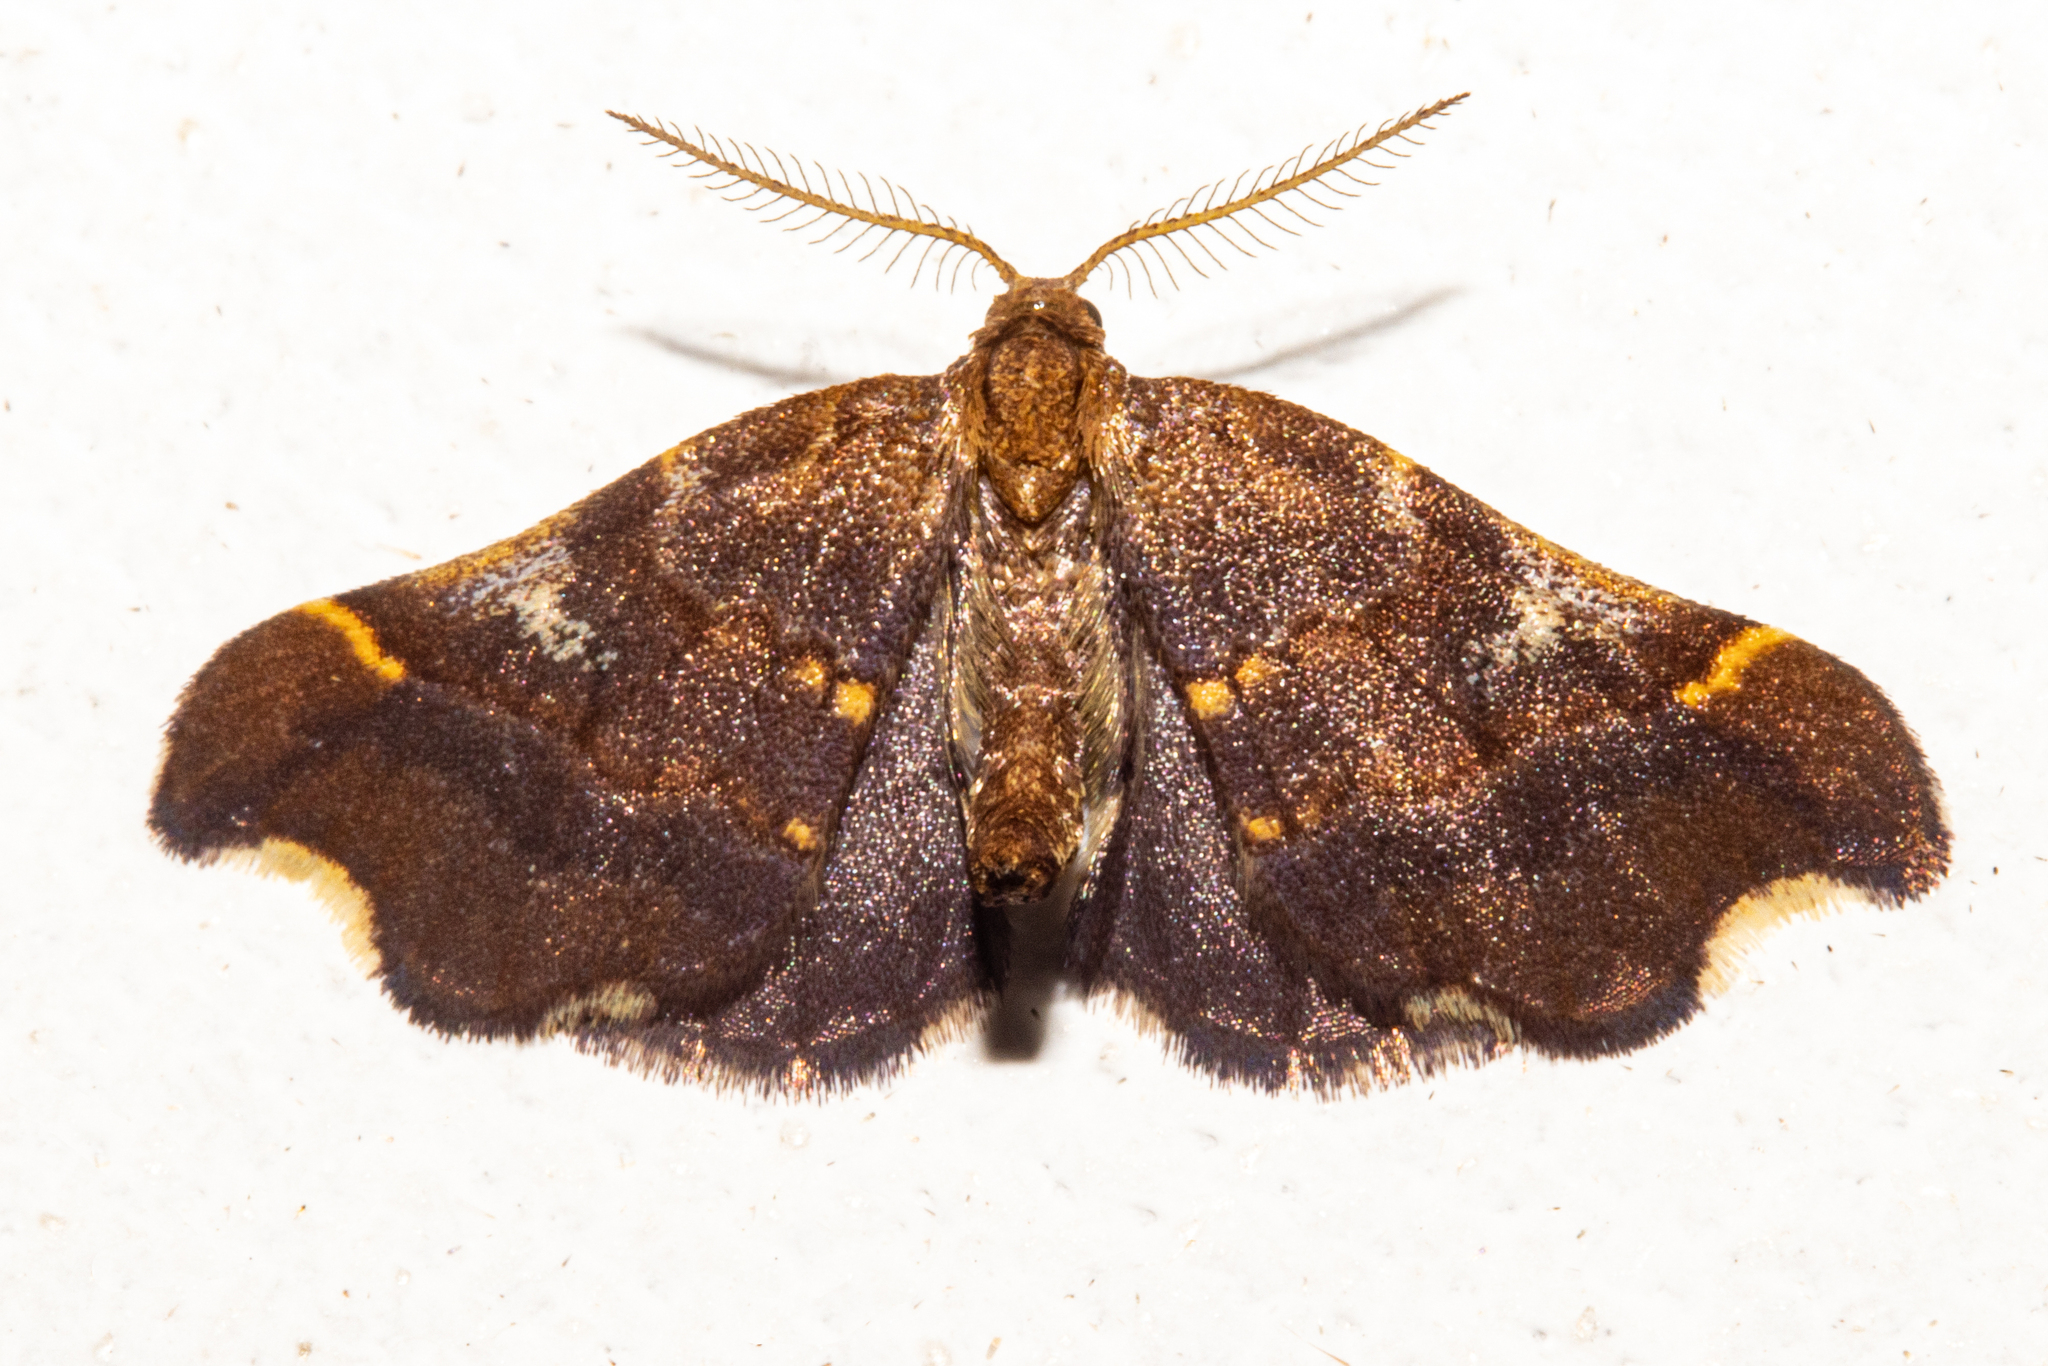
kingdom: Animalia
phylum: Arthropoda
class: Insecta
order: Lepidoptera
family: Geometridae
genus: Paradetis
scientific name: Paradetis porphyrias
